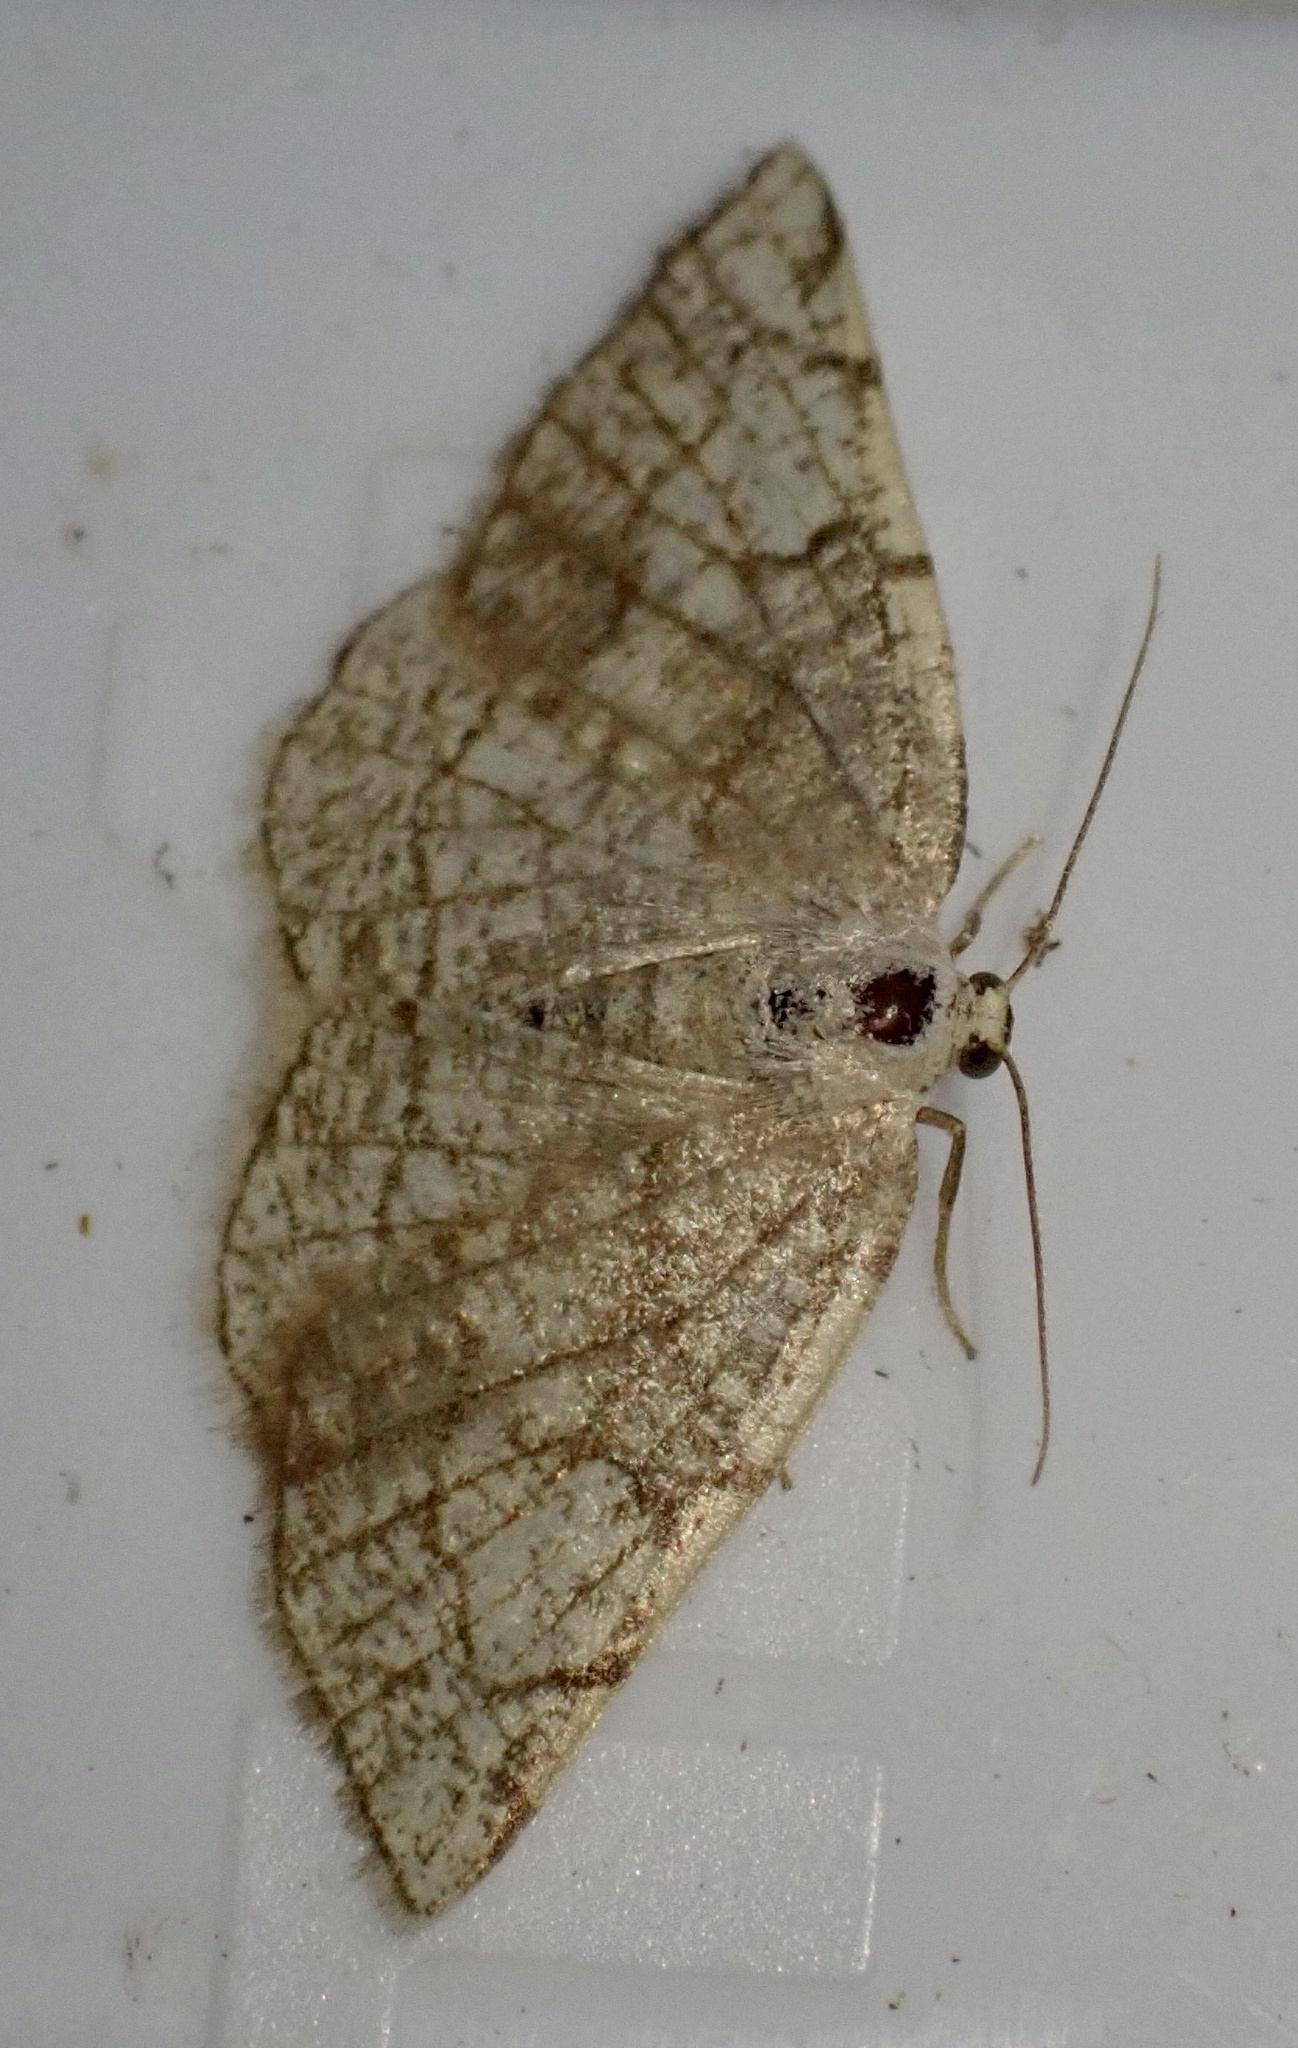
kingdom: Animalia
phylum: Arthropoda
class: Insecta
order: Lepidoptera
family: Geometridae
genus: Stegania
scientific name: Stegania trimaculata
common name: Dorset cream wave
